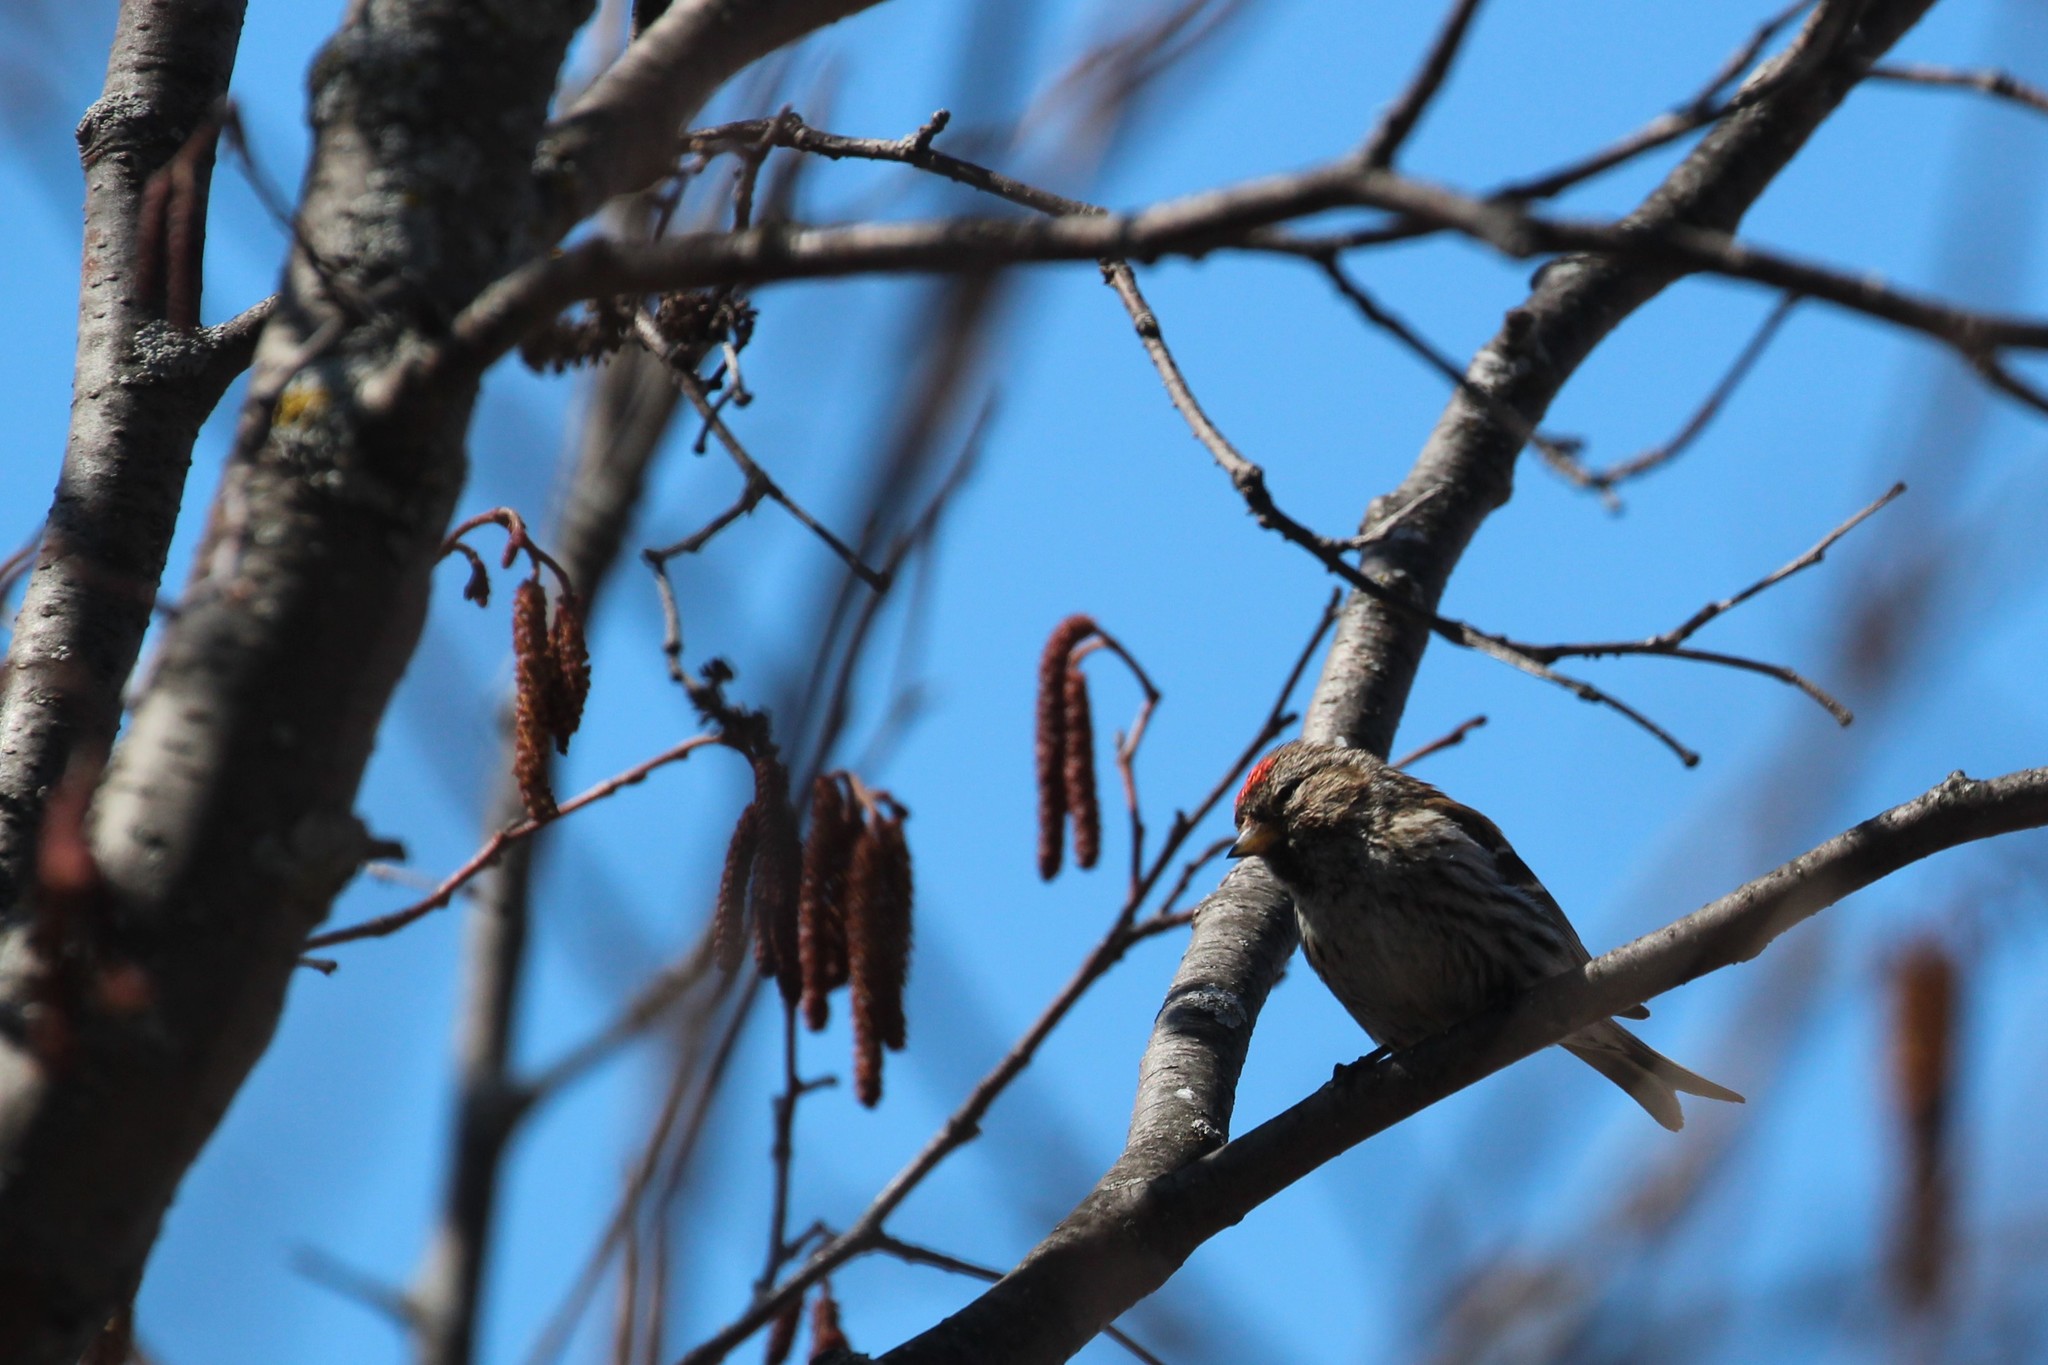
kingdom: Animalia
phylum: Chordata
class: Aves
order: Passeriformes
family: Fringillidae
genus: Acanthis
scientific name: Acanthis flammea
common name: Common redpoll
